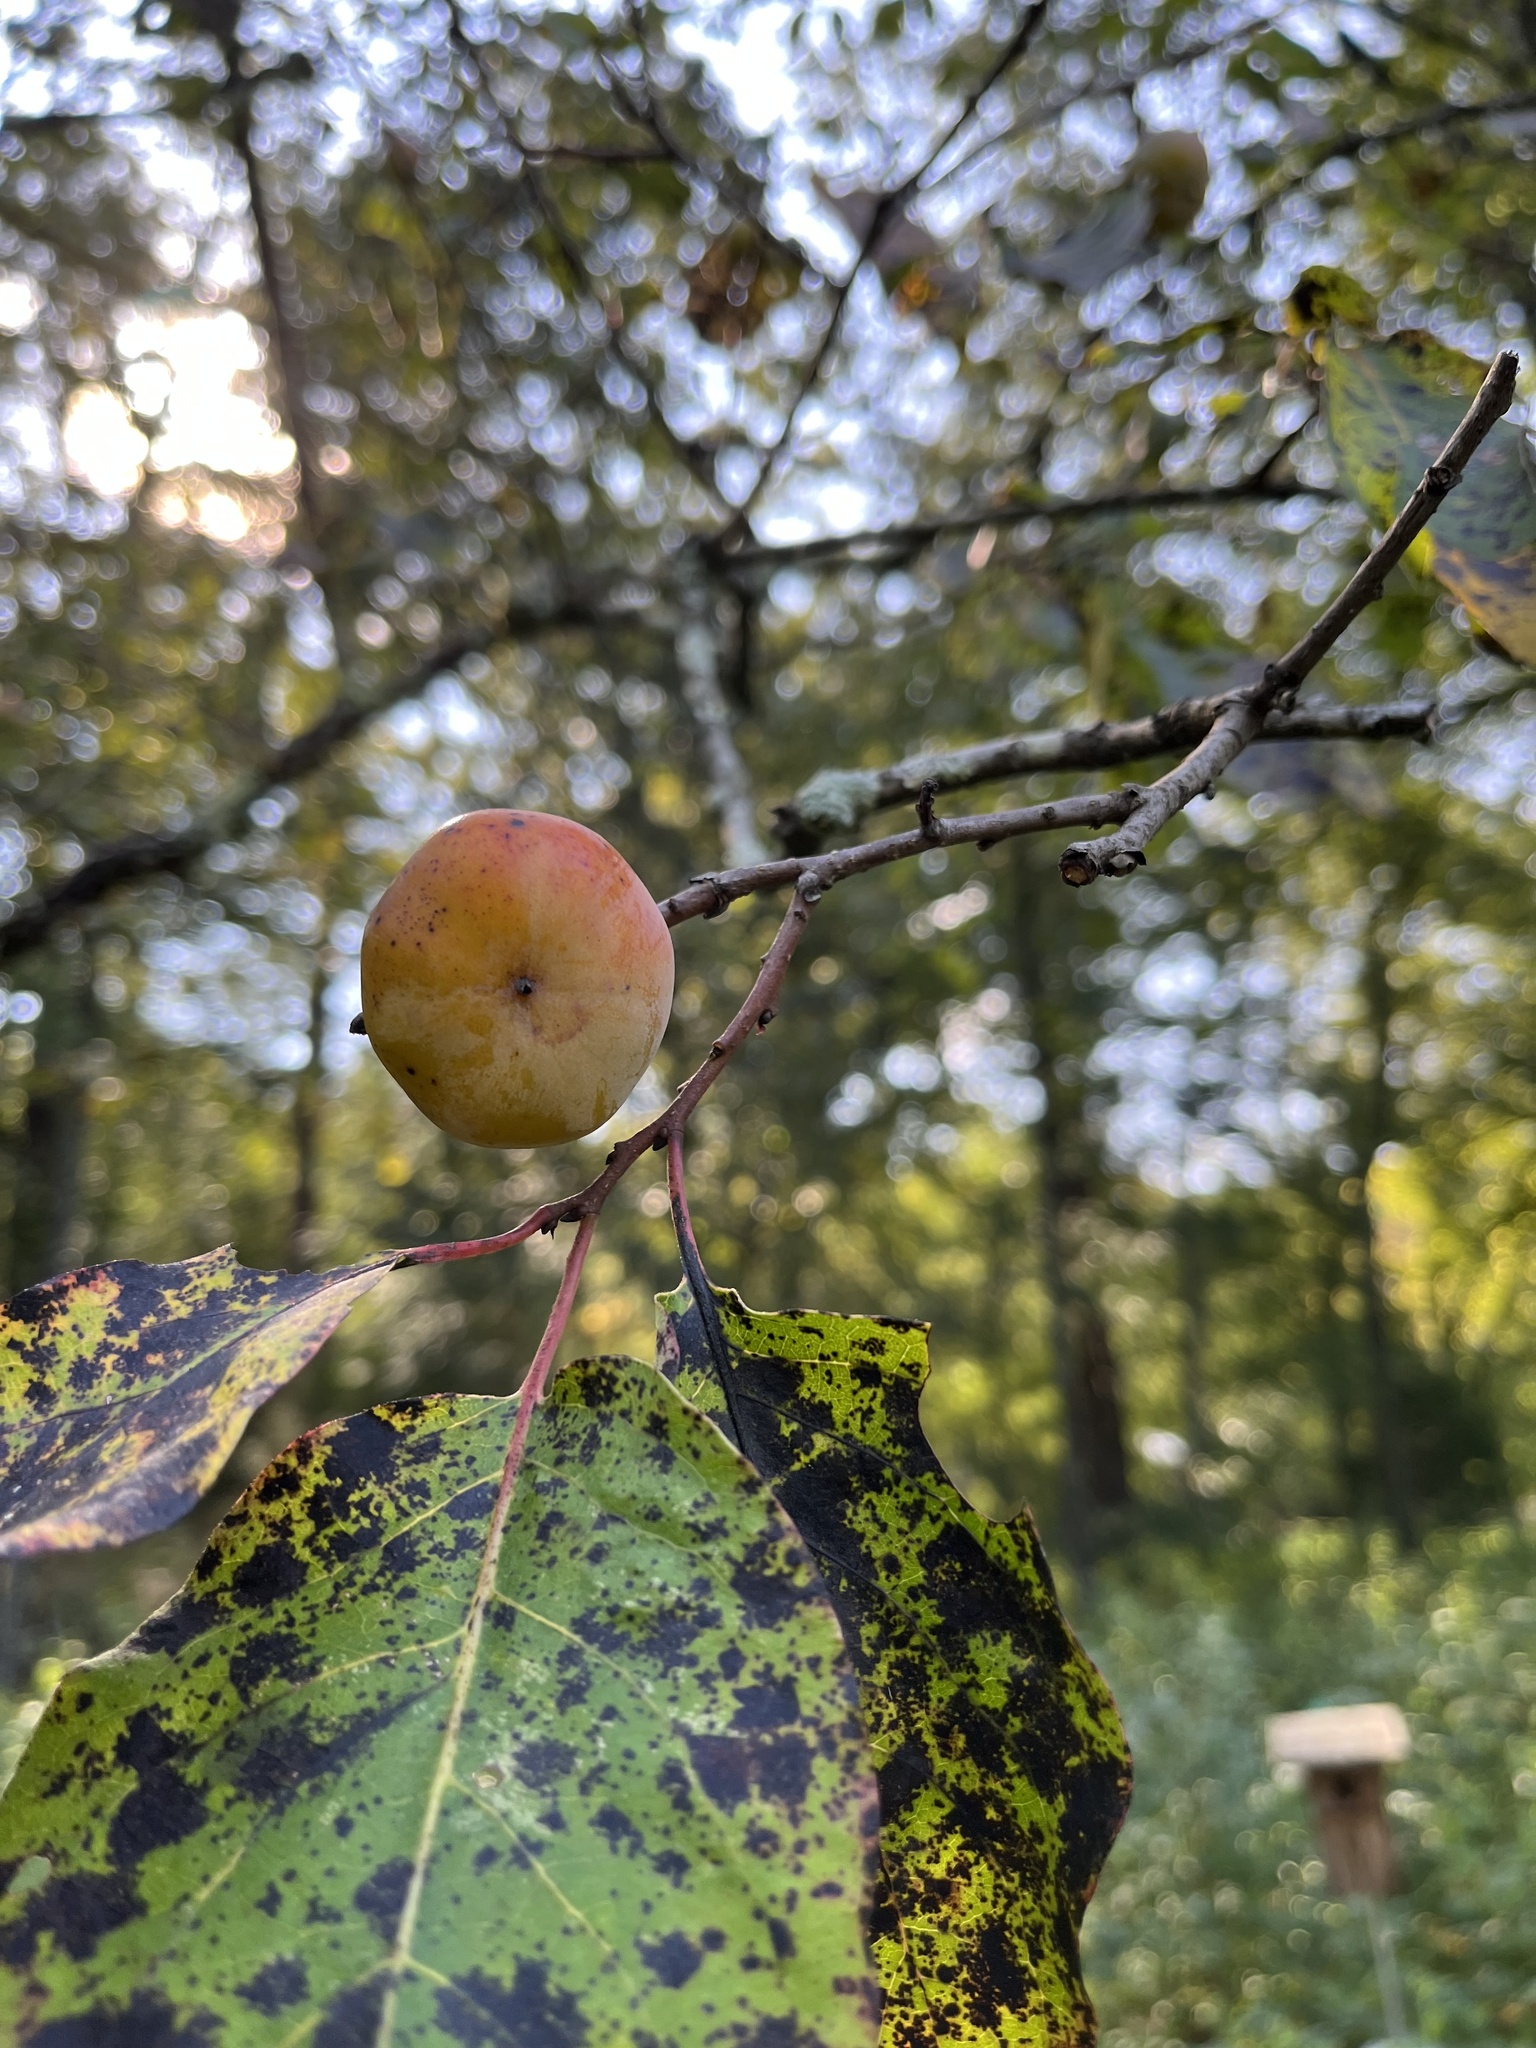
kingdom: Plantae
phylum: Tracheophyta
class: Magnoliopsida
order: Ericales
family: Ebenaceae
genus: Diospyros
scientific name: Diospyros virginiana
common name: Persimmon
